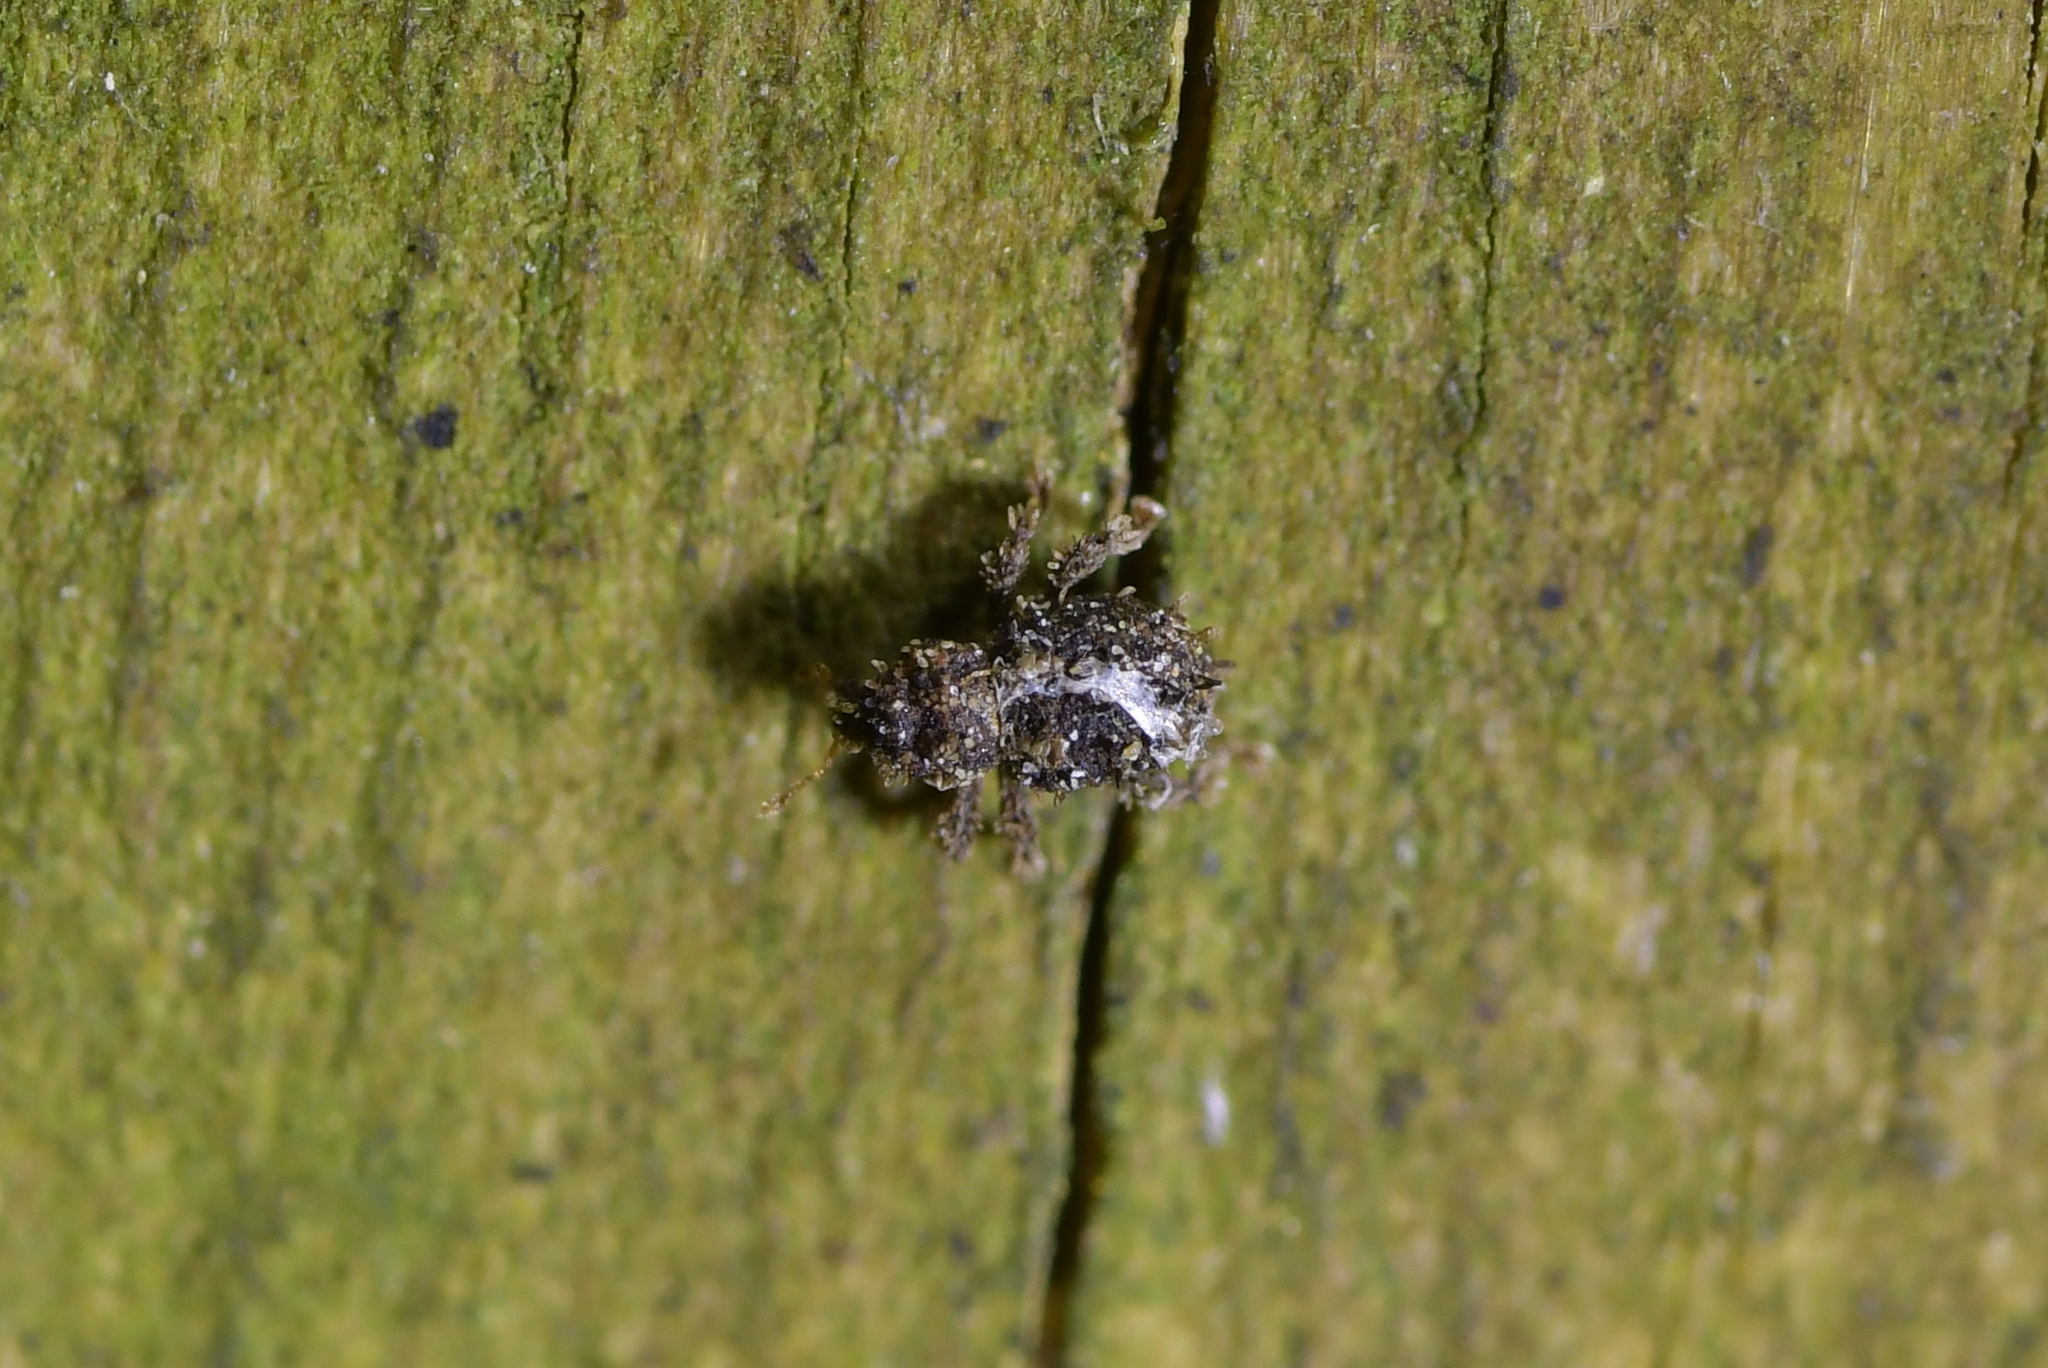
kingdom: Animalia
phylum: Arthropoda
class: Insecta
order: Coleoptera
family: Curculionidae
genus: Andracalles
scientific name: Andracalles horridus
